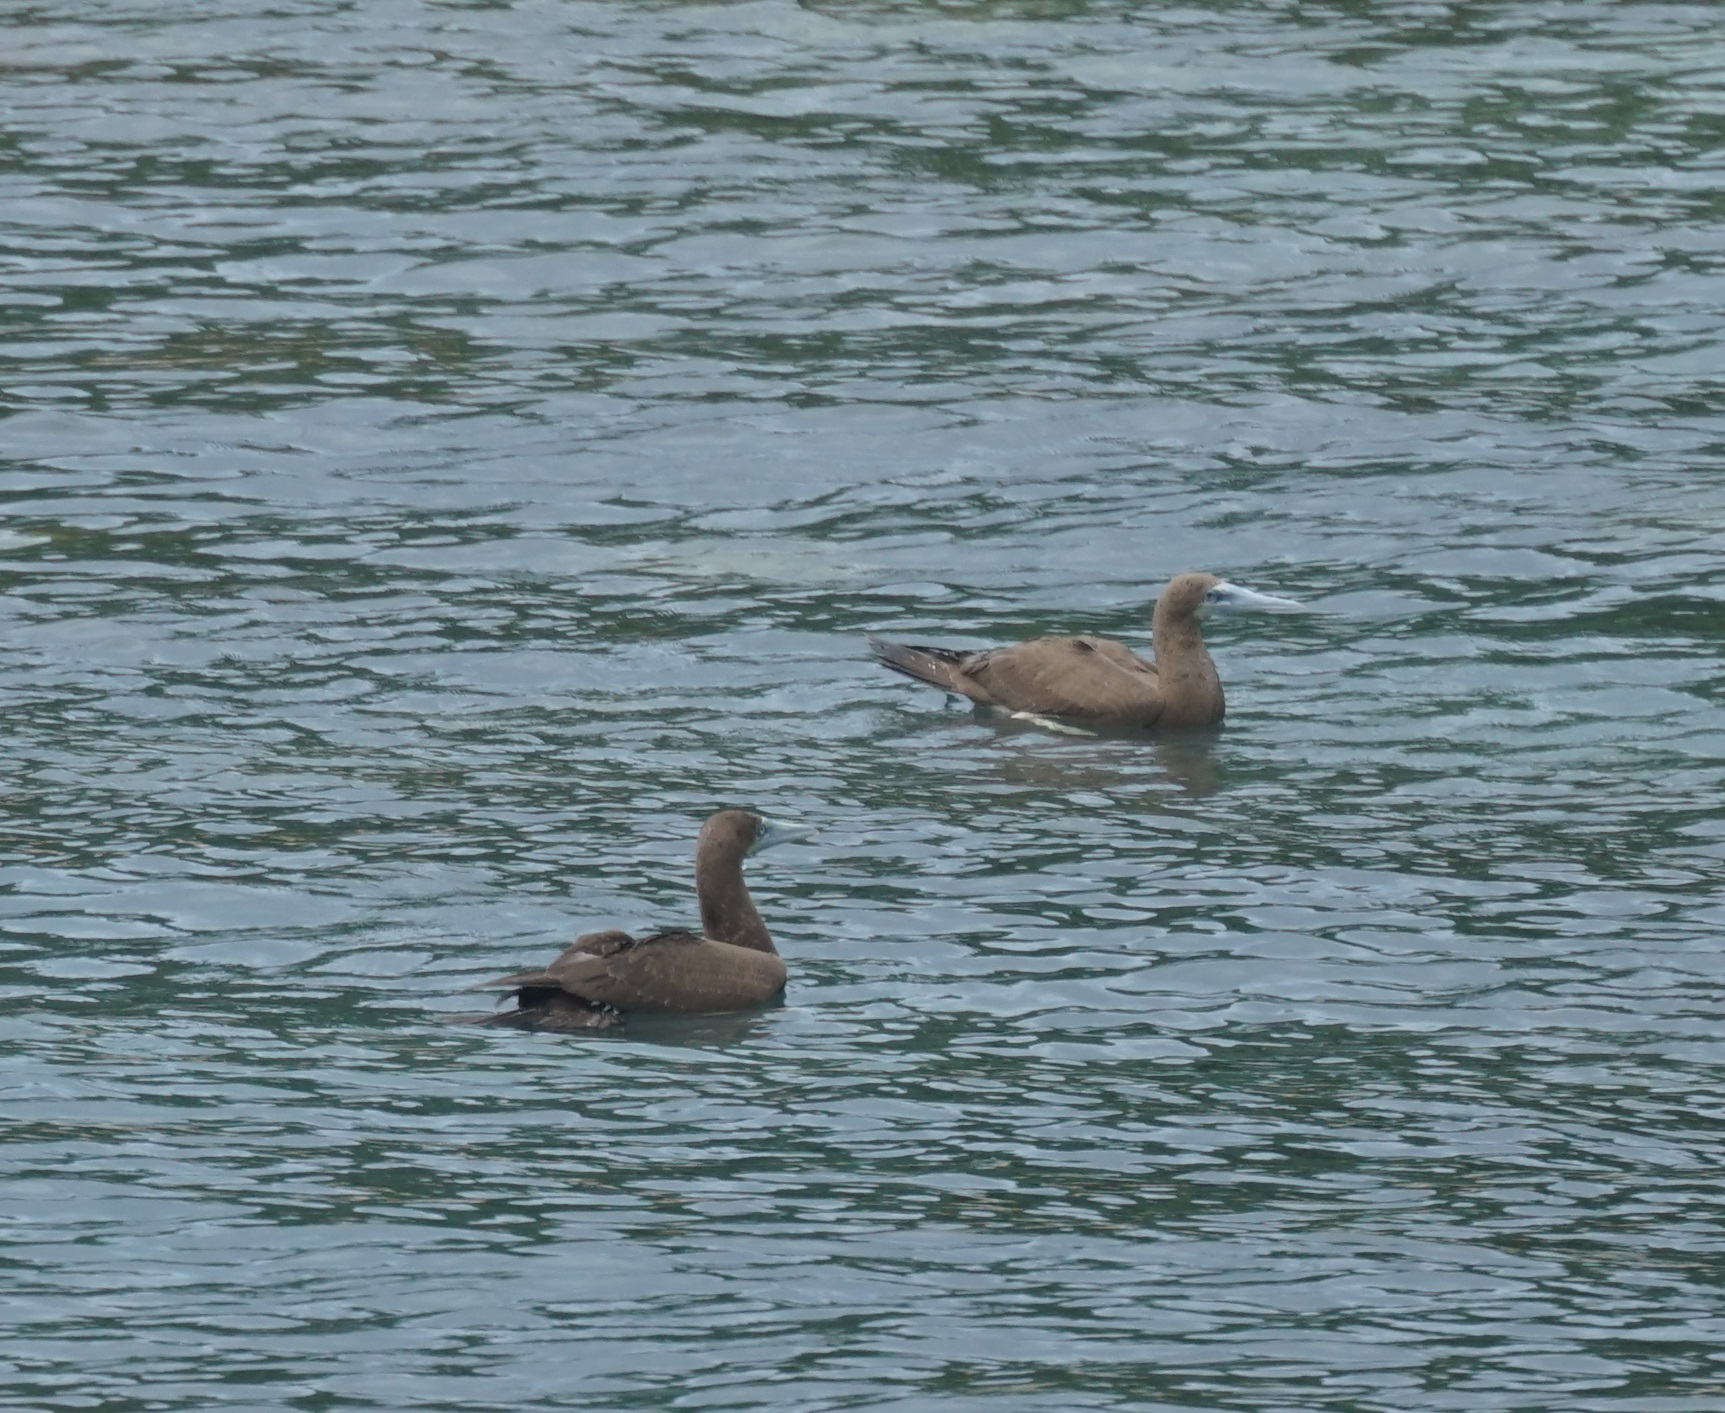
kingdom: Animalia
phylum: Chordata
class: Aves
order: Suliformes
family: Sulidae
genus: Sula
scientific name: Sula leucogaster
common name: Brown booby
